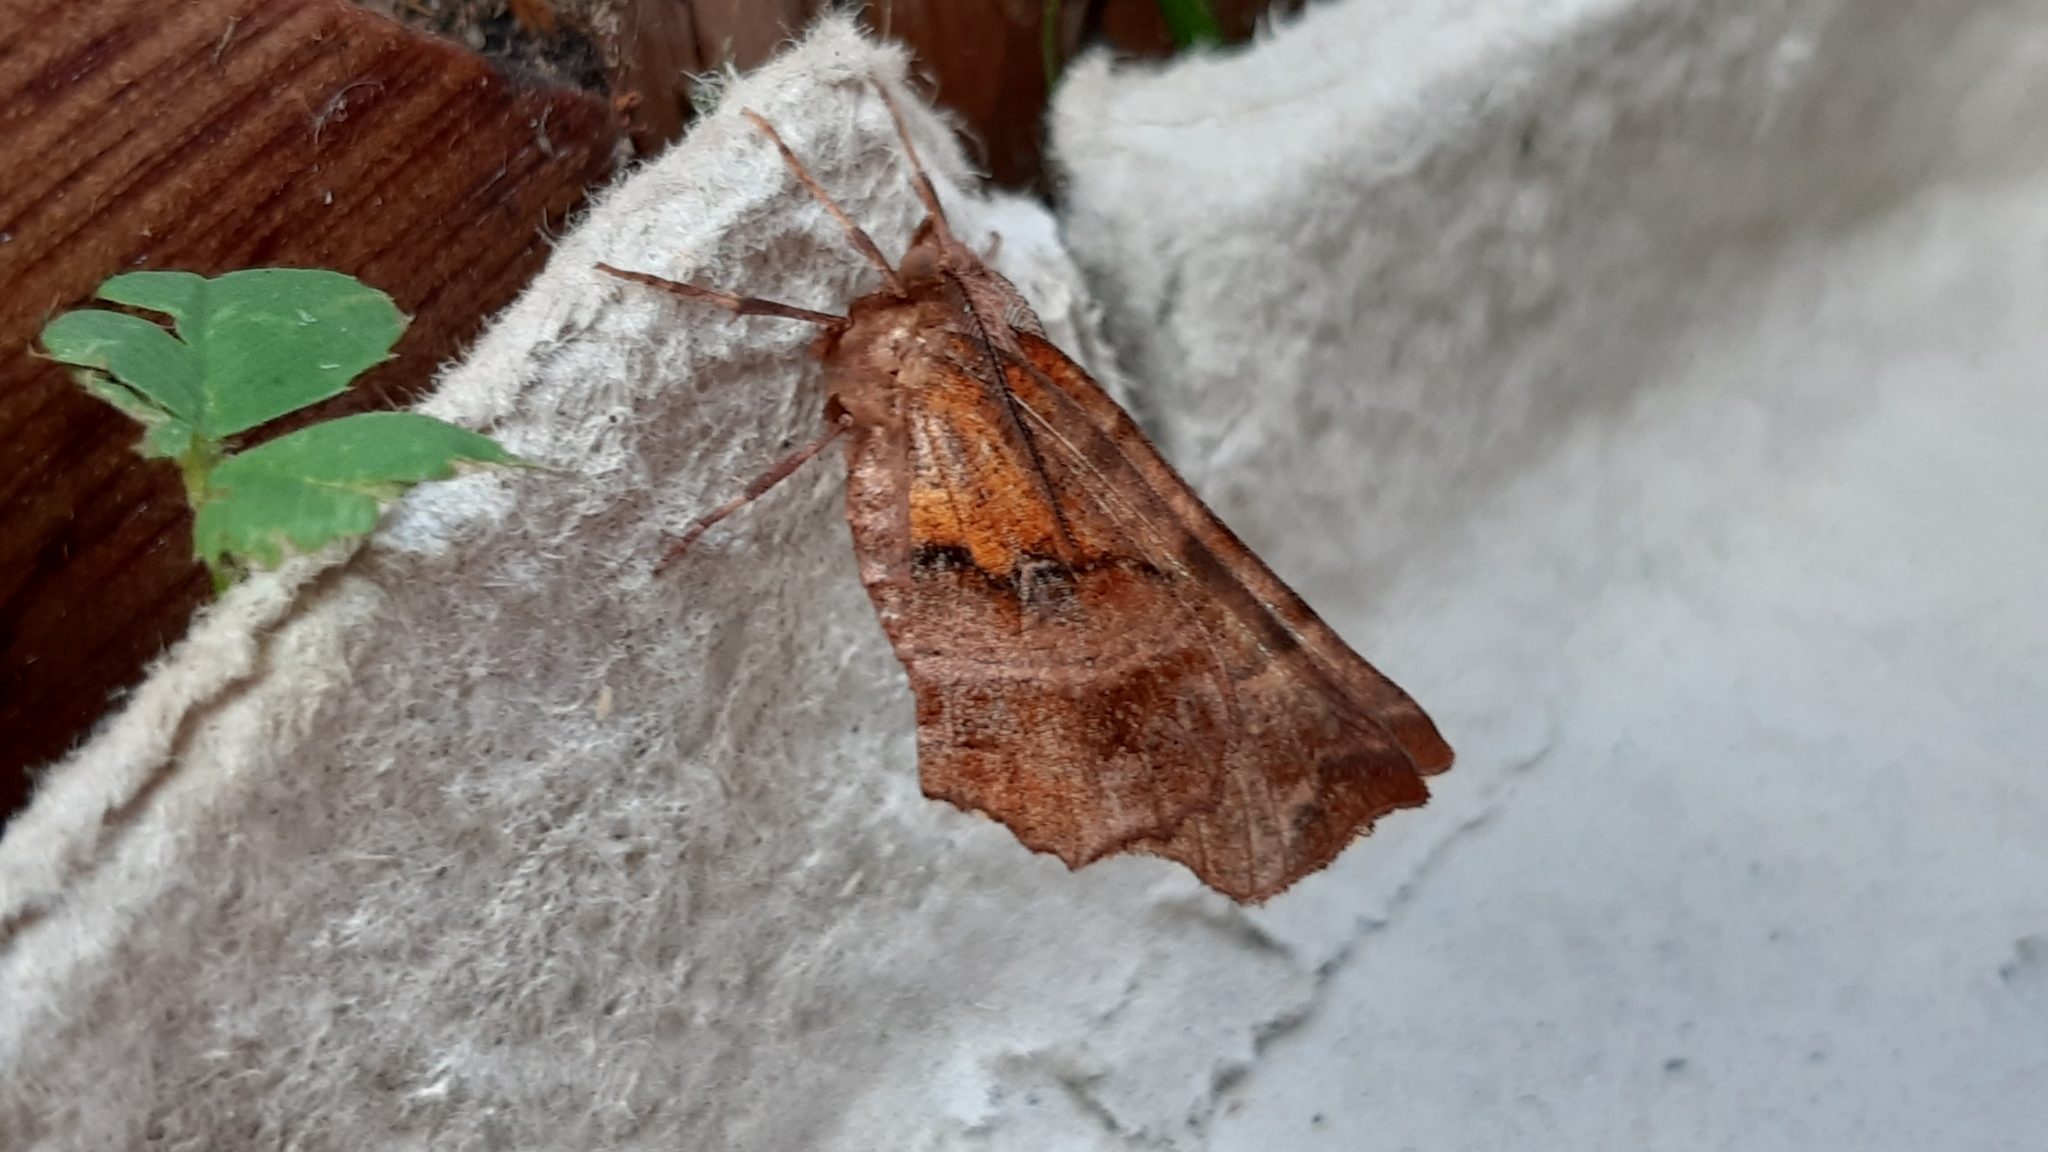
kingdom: Animalia
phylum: Arthropoda
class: Insecta
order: Lepidoptera
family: Geometridae
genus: Selenia
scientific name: Selenia dentaria
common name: Early thorn
